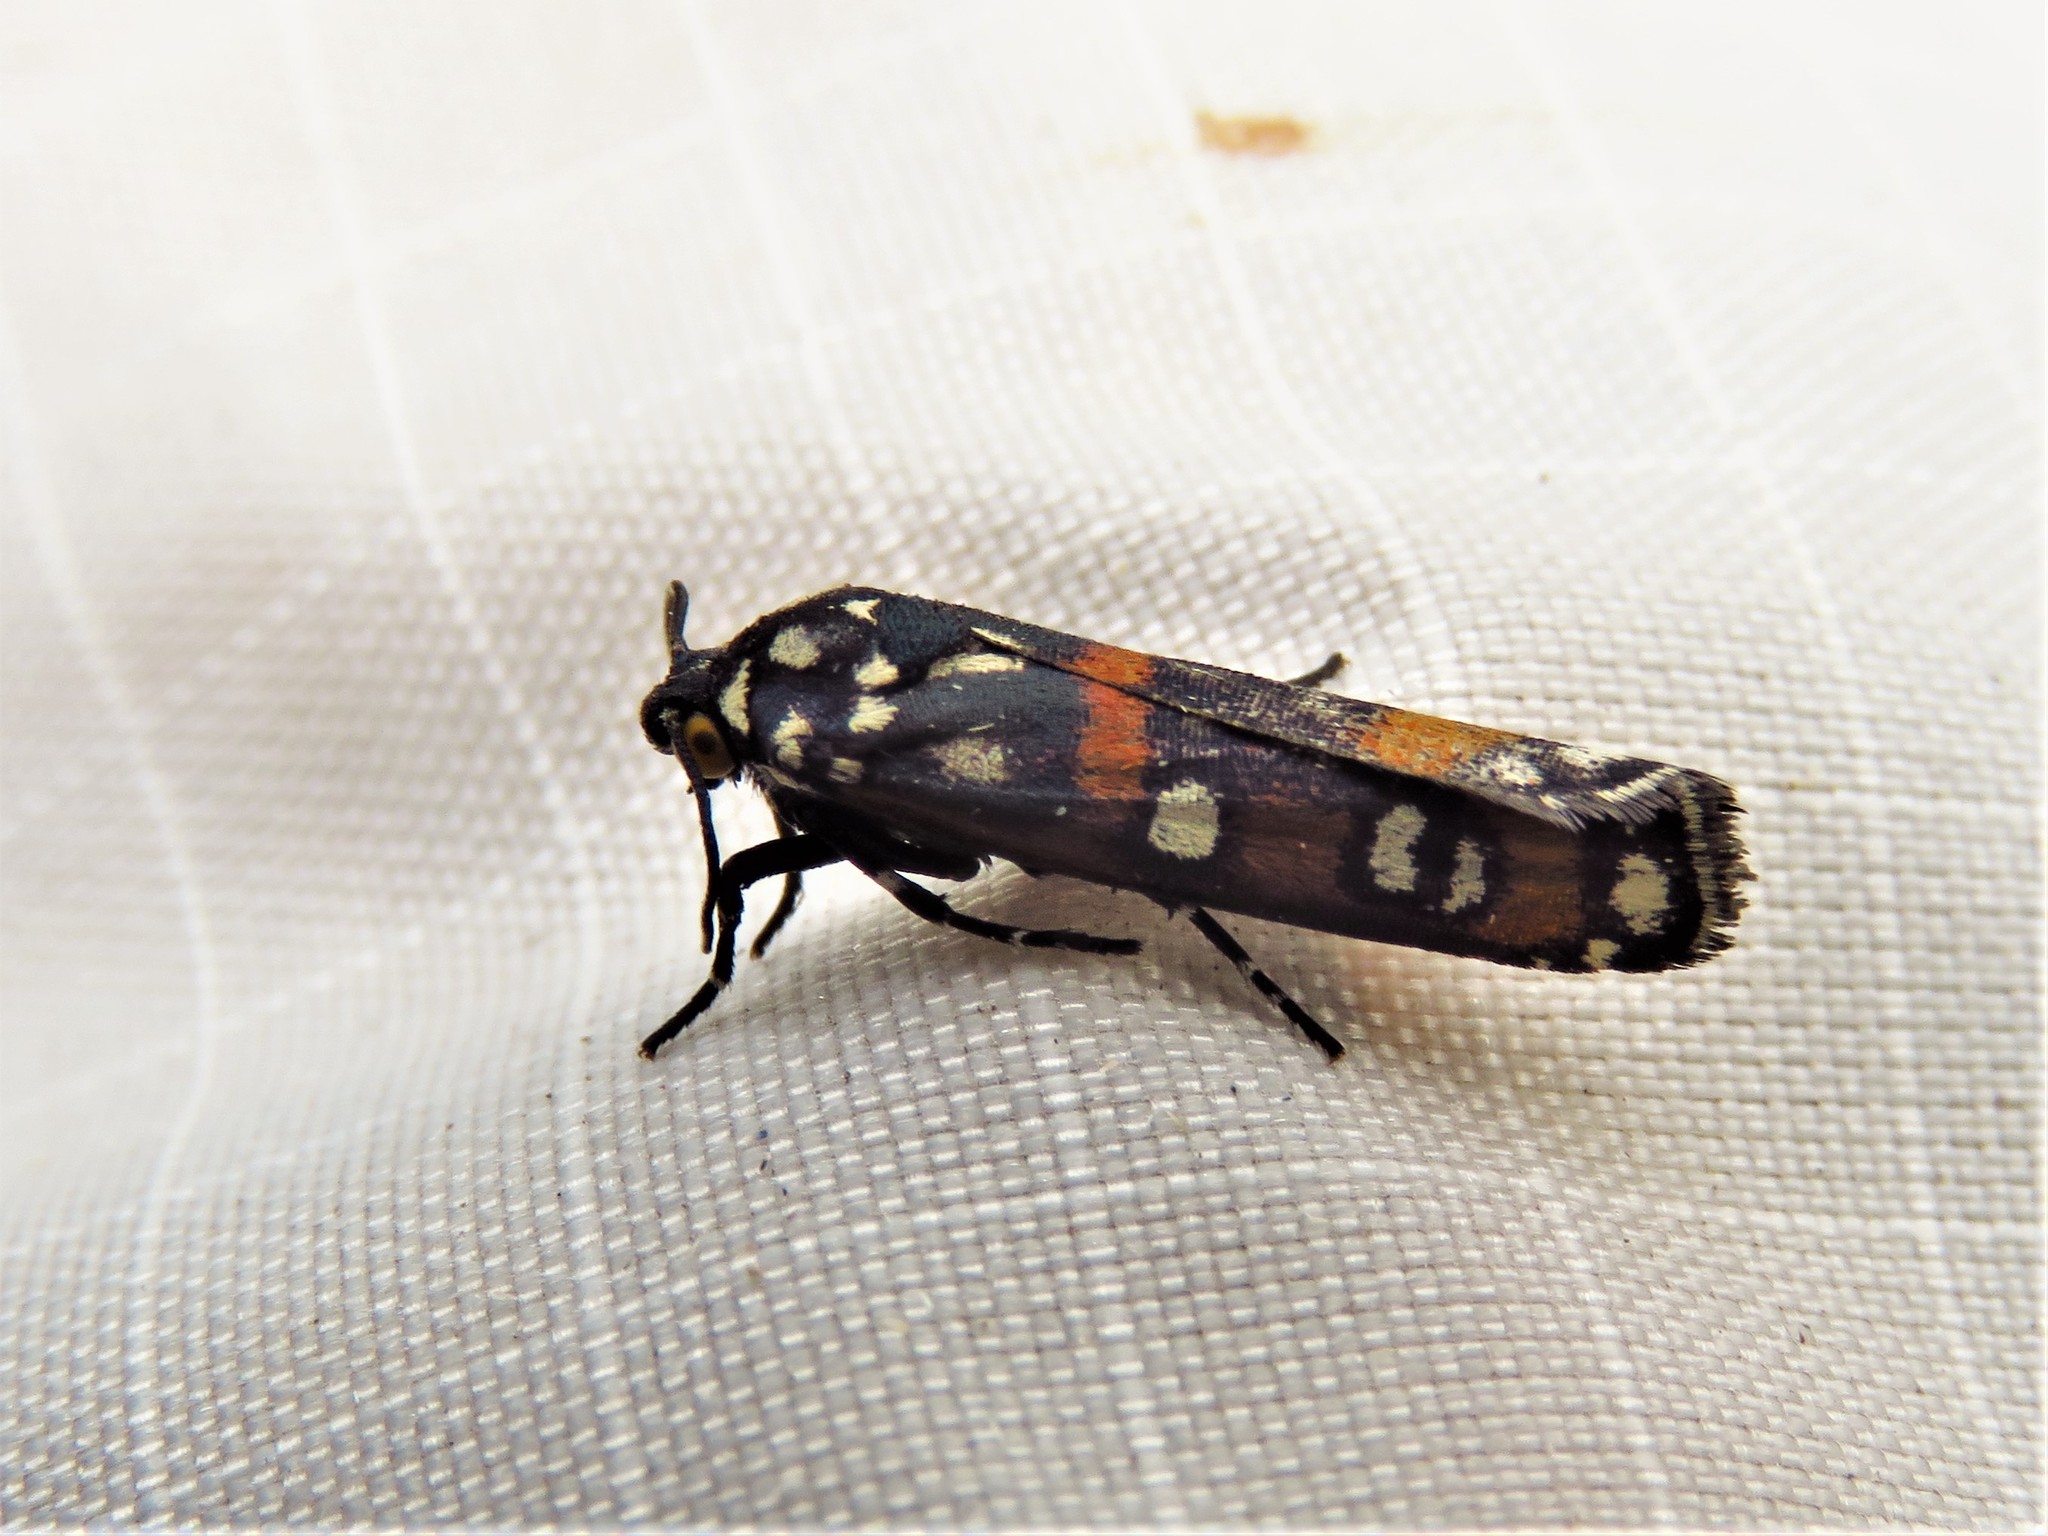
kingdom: Animalia
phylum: Arthropoda
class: Insecta
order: Lepidoptera
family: Noctuidae
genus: Cydosia
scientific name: Cydosia aurivitta
